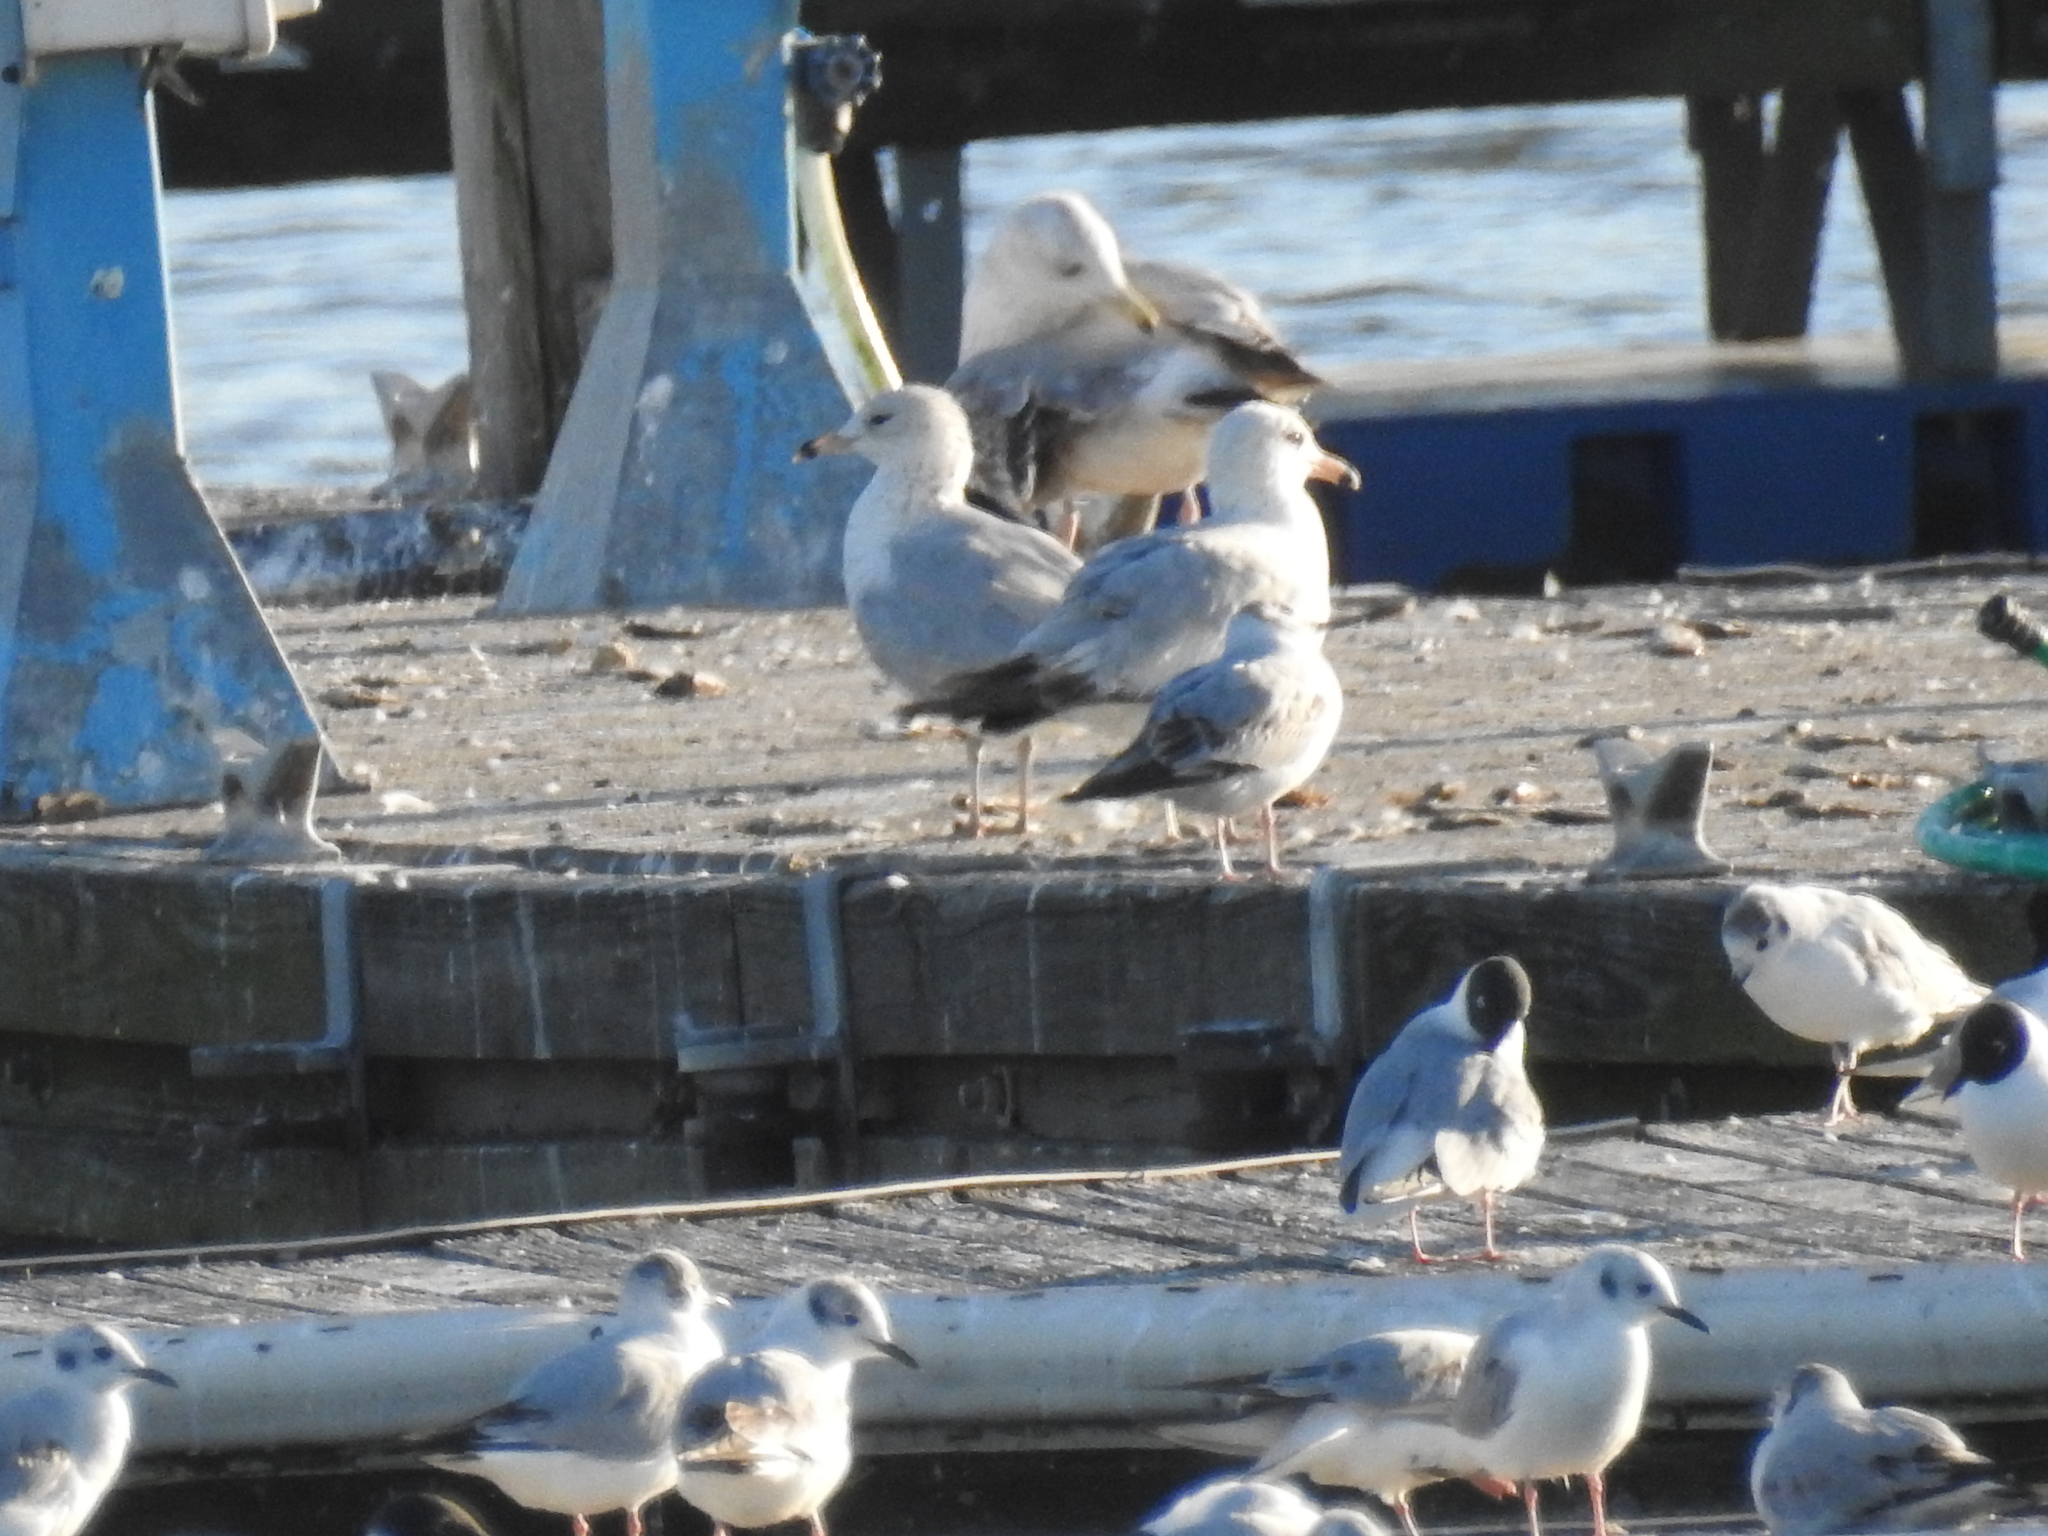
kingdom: Animalia
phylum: Chordata
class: Aves
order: Charadriiformes
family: Laridae
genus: Chroicocephalus
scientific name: Chroicocephalus philadelphia
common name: Bonaparte's gull
